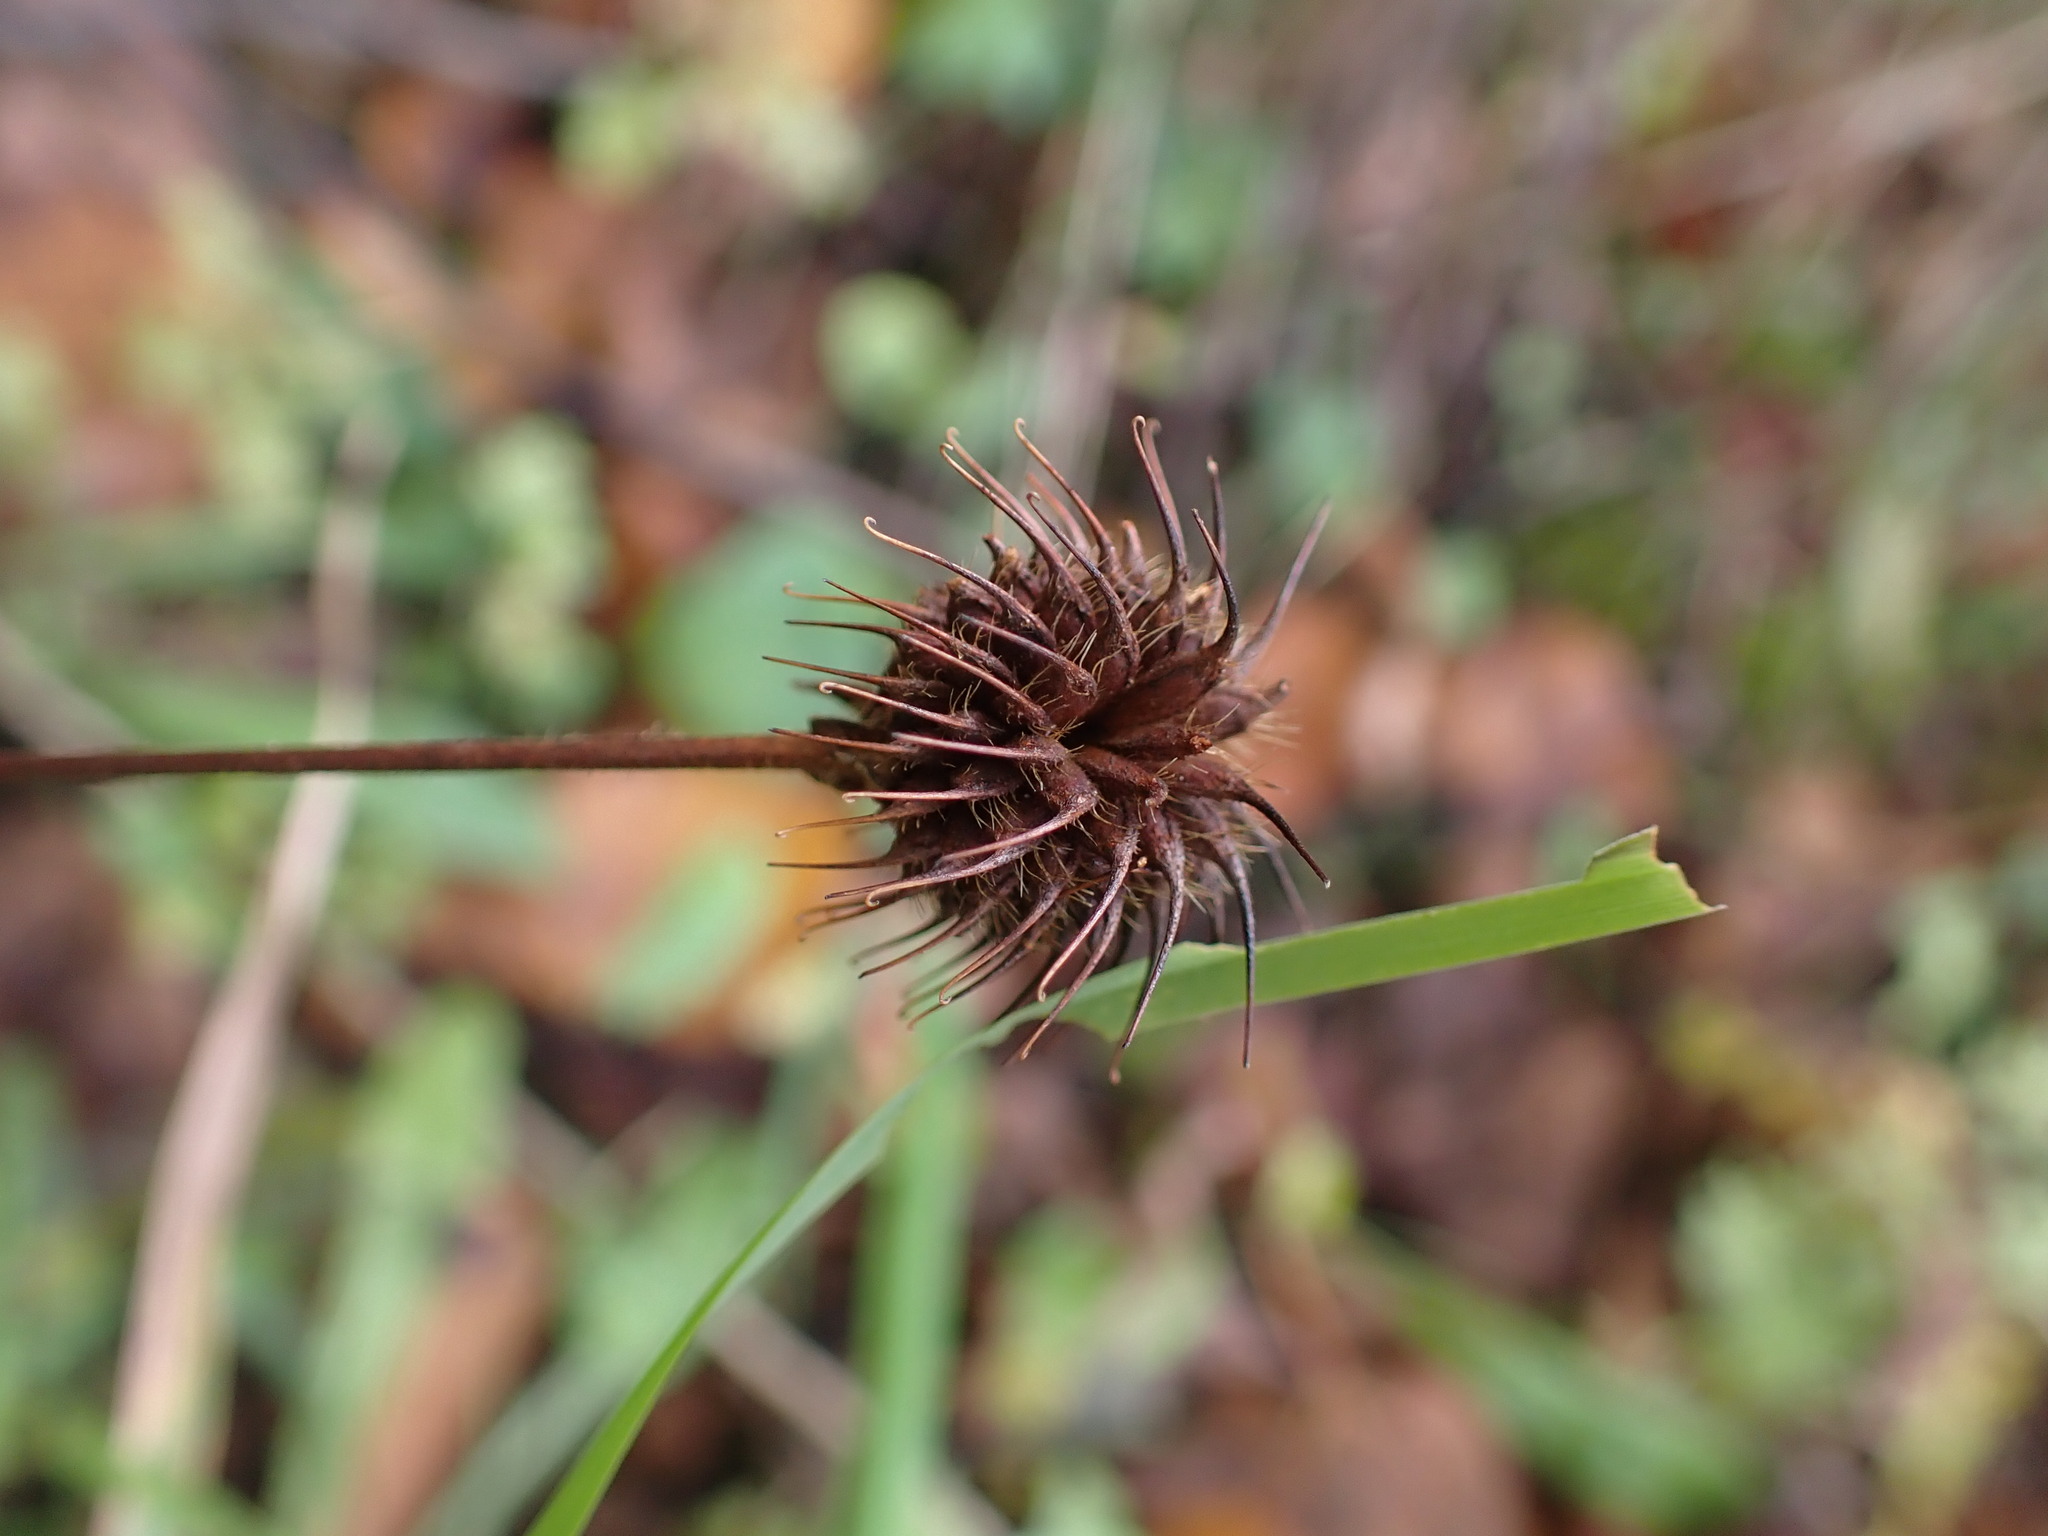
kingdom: Plantae
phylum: Tracheophyta
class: Magnoliopsida
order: Rosales
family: Rosaceae
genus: Geum
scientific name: Geum urbanum
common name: Wood avens
